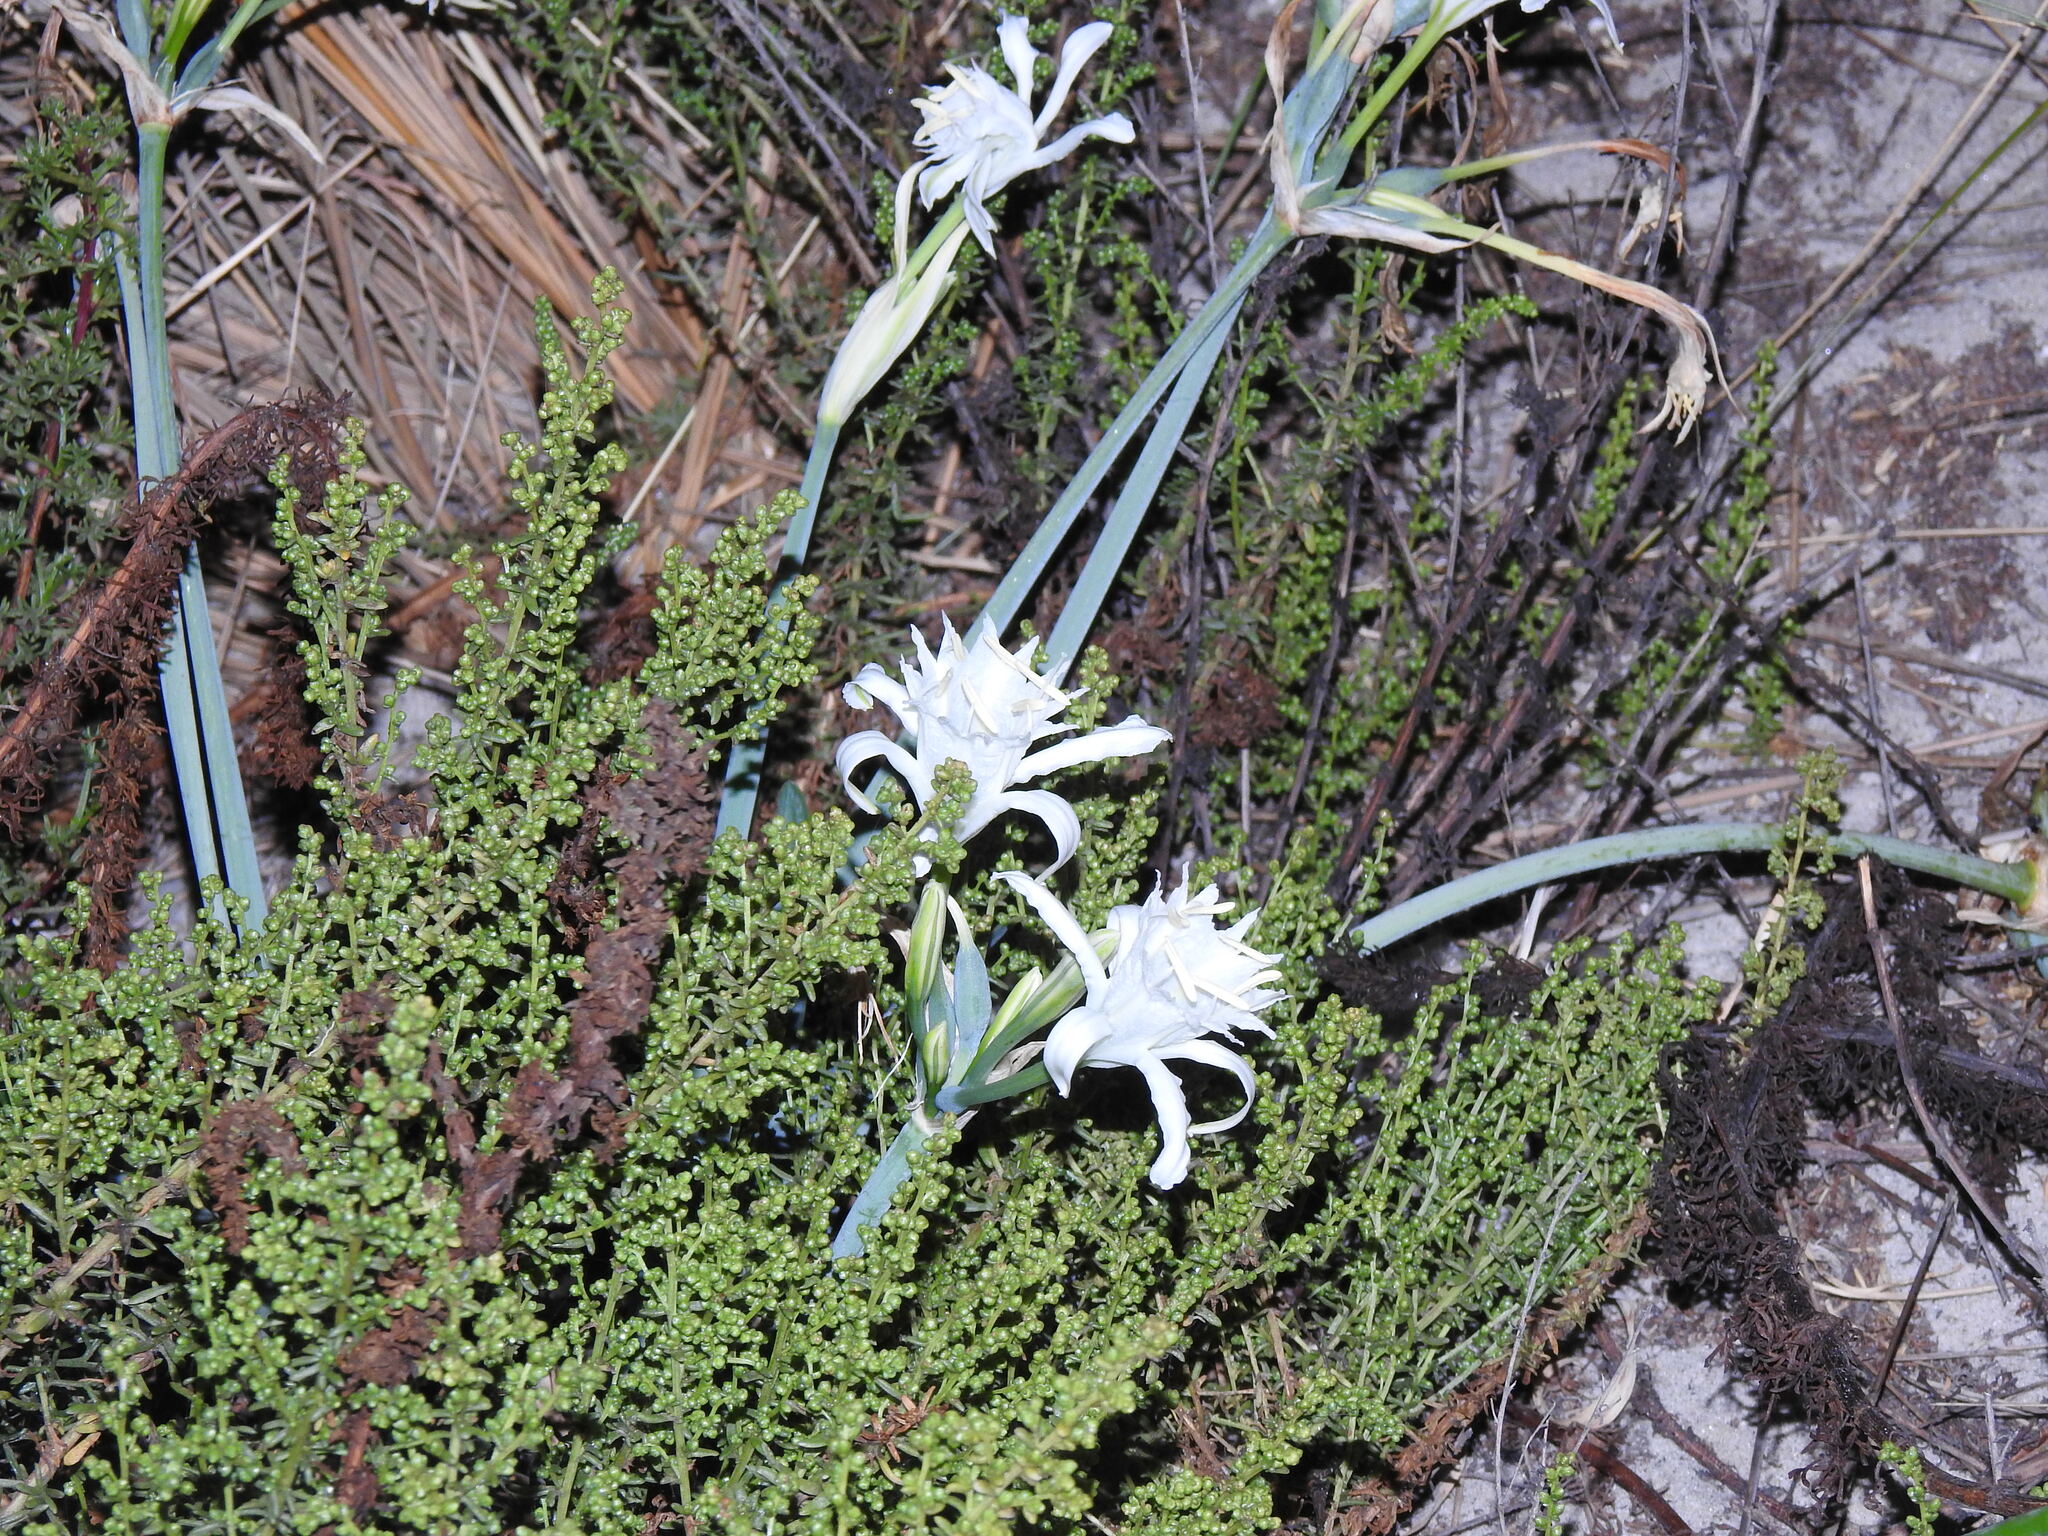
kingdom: Plantae
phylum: Tracheophyta
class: Liliopsida
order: Asparagales
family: Amaryllidaceae
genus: Pancratium
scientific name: Pancratium maritimum
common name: Sea-daffodil
